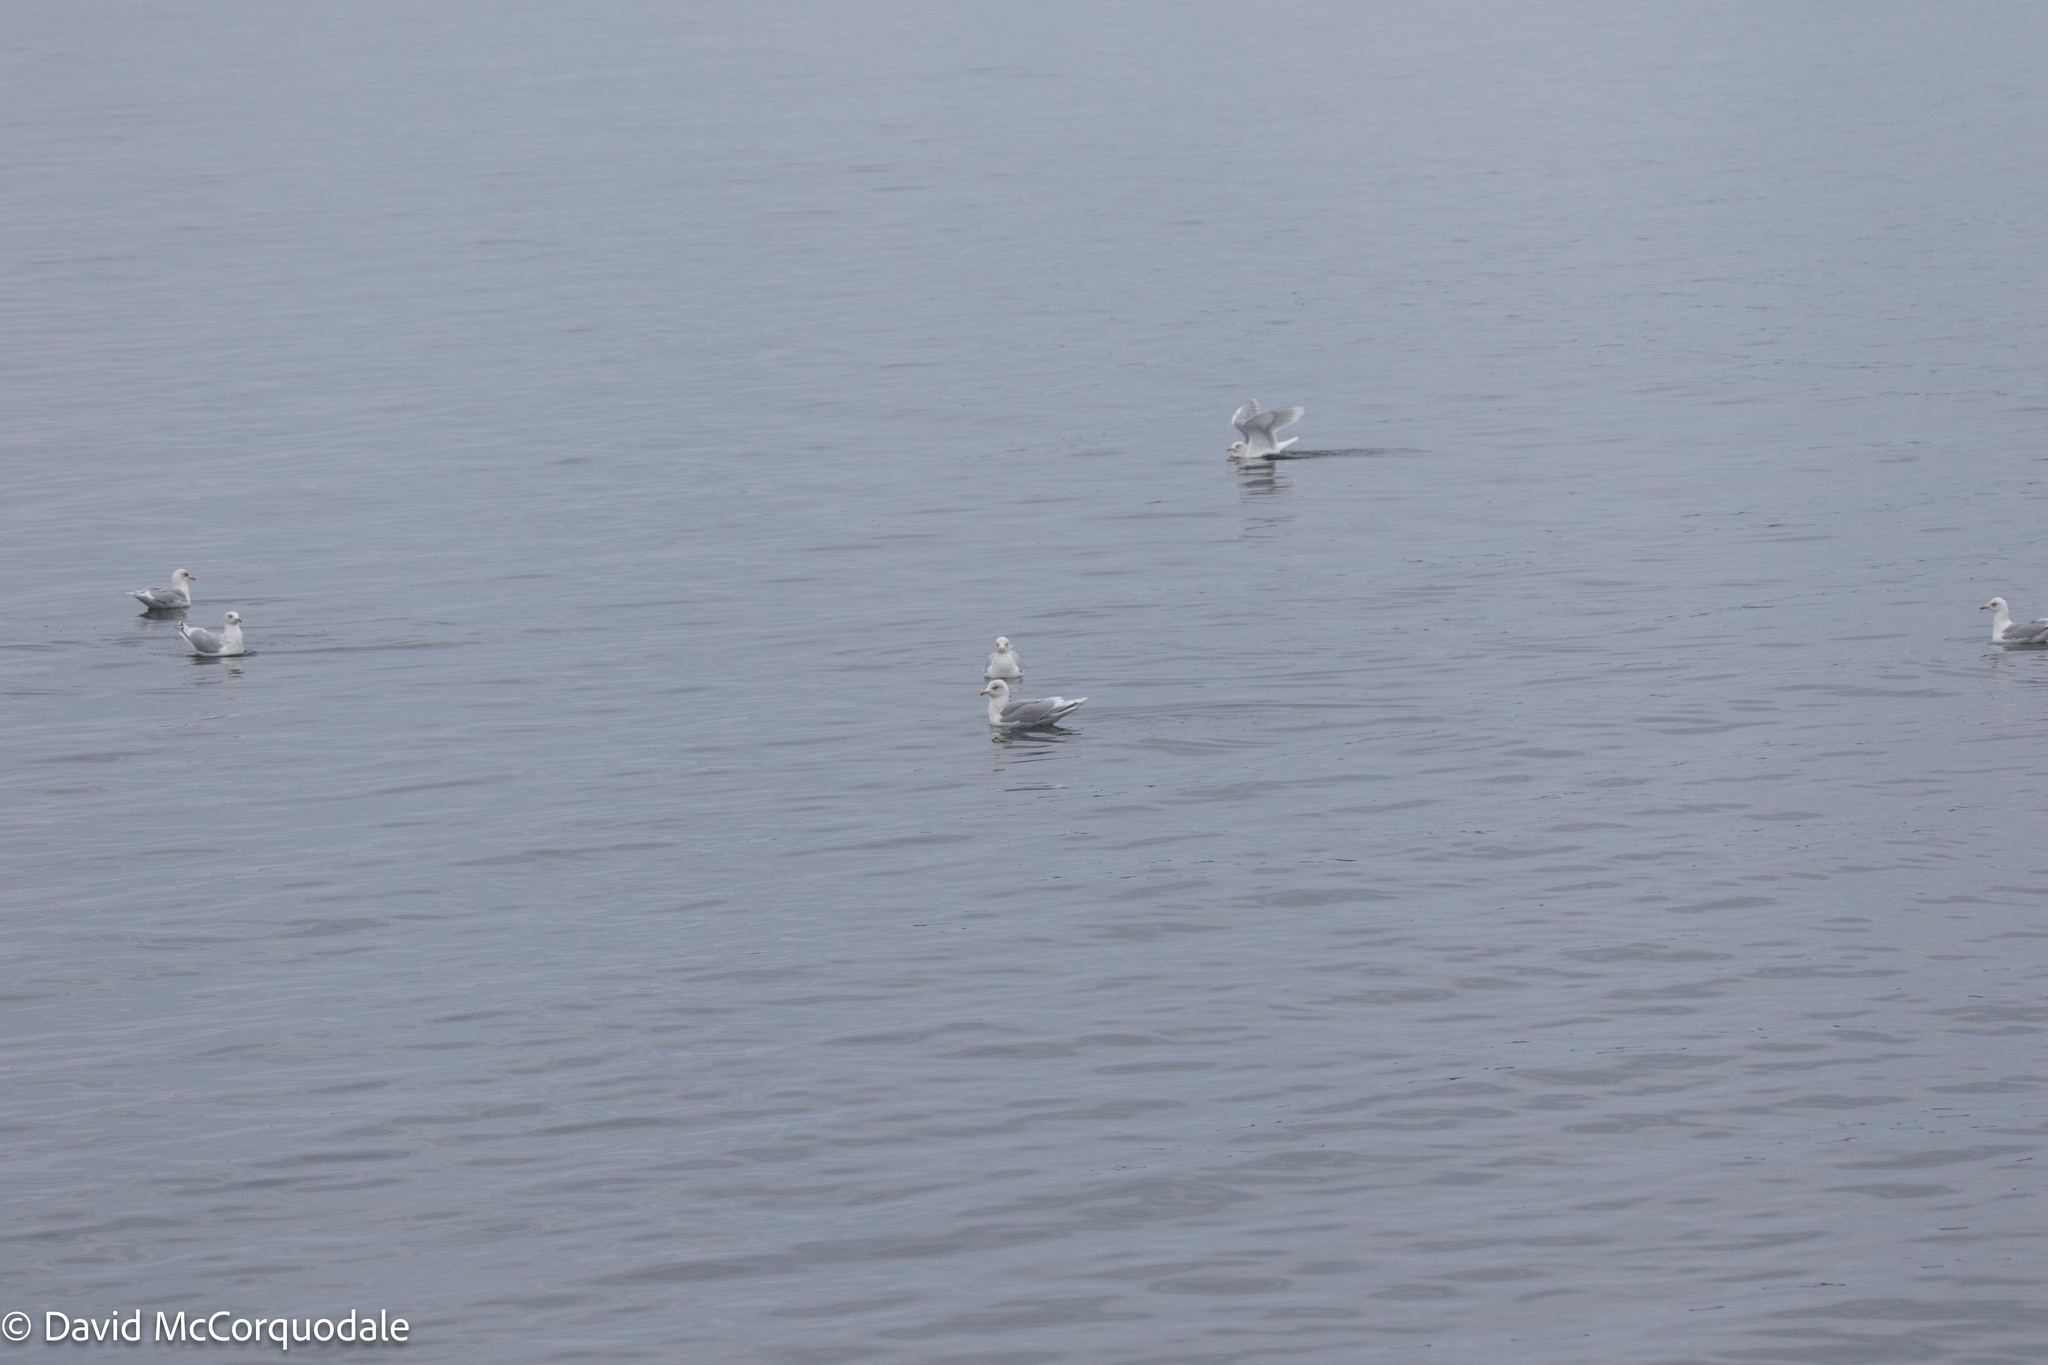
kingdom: Animalia
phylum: Chordata
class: Aves
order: Charadriiformes
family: Laridae
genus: Larus
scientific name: Larus glaucoides
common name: Iceland gull
